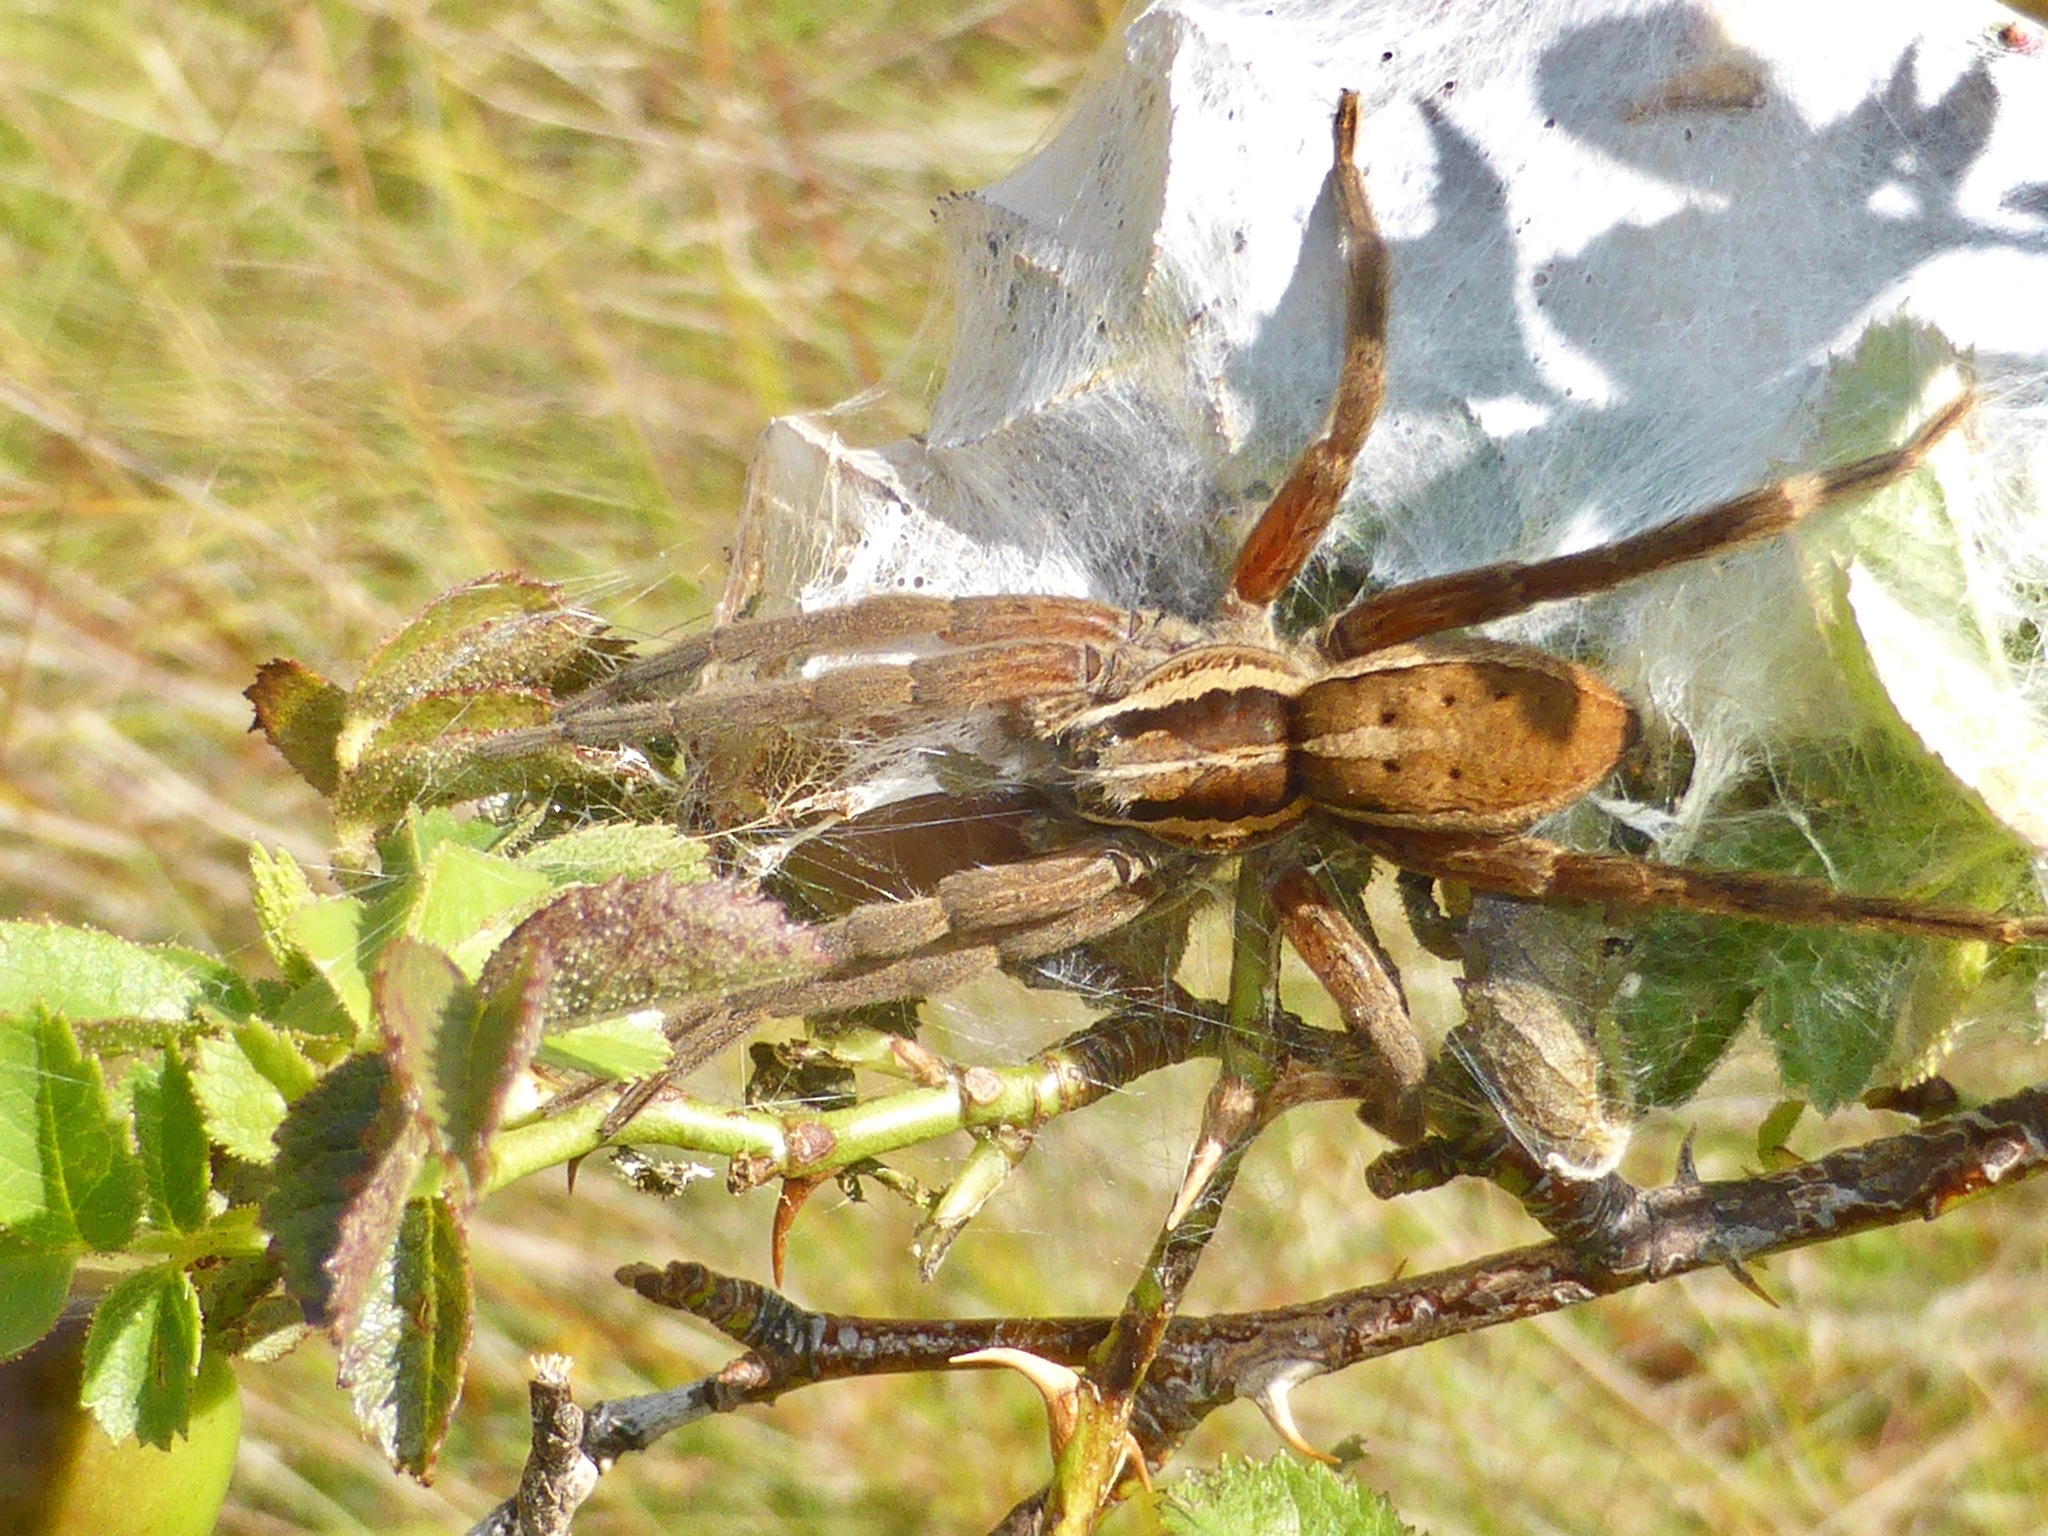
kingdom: Animalia
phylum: Arthropoda
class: Arachnida
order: Araneae
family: Pisauridae
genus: Dolomedes
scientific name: Dolomedes minor
